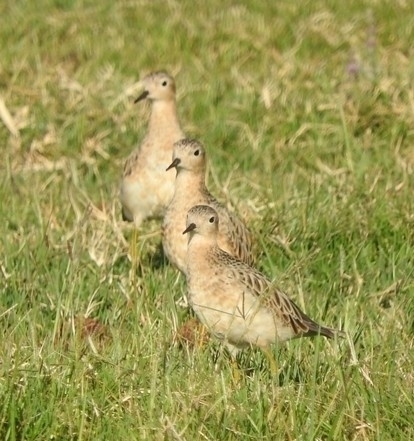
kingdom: Animalia
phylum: Chordata
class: Aves
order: Charadriiformes
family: Scolopacidae
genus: Calidris
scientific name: Calidris subruficollis
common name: Buff-breasted sandpiper
